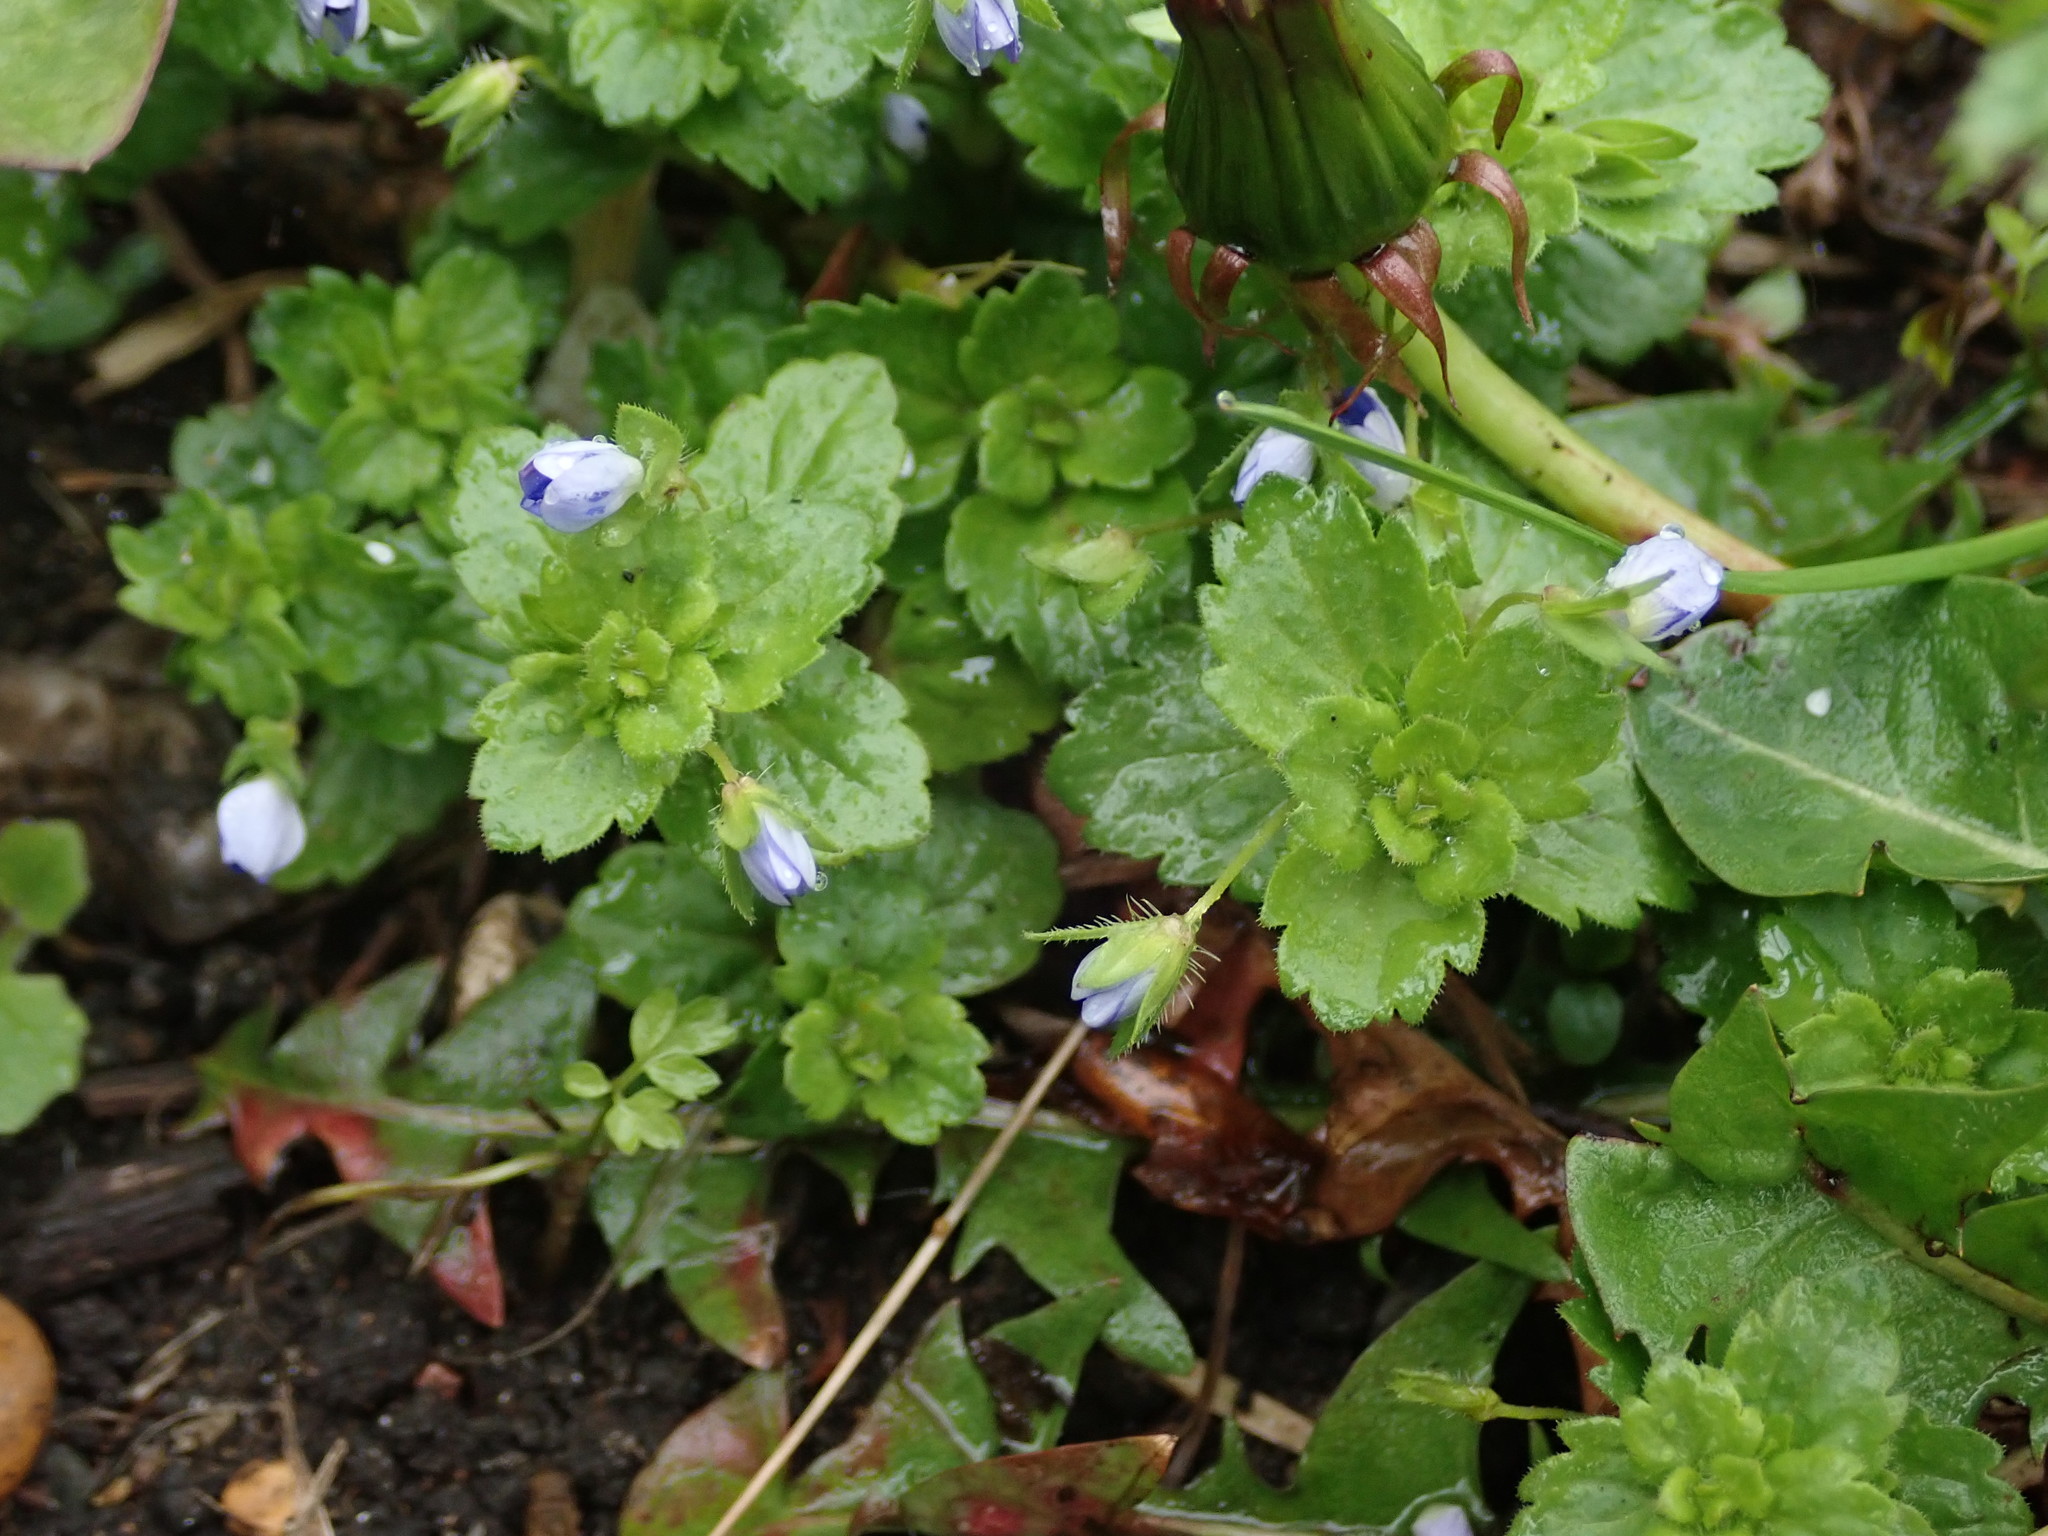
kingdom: Plantae
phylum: Tracheophyta
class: Magnoliopsida
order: Lamiales
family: Plantaginaceae
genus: Veronica
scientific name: Veronica persica
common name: Common field-speedwell
